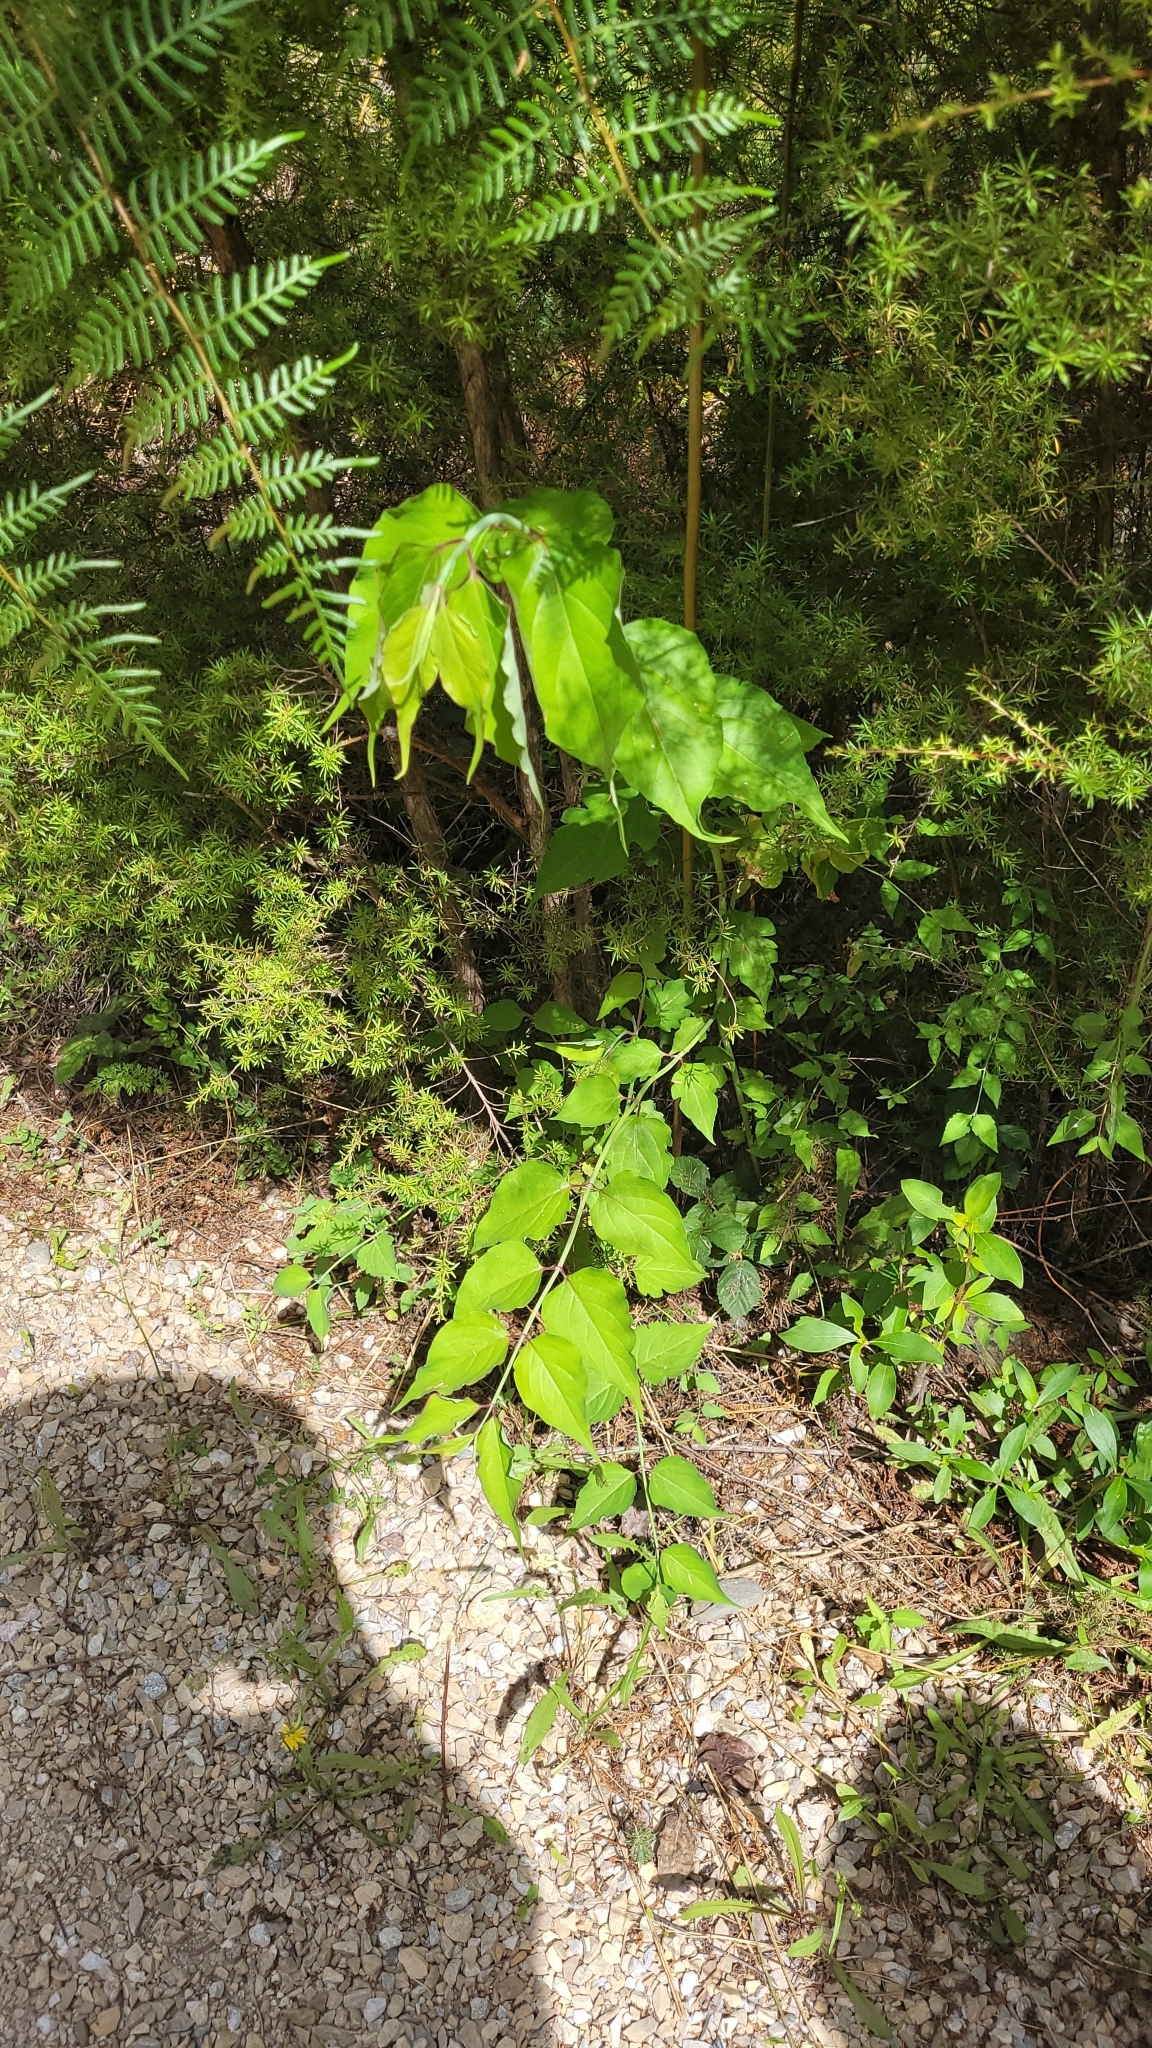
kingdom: Plantae
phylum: Tracheophyta
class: Magnoliopsida
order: Dipsacales
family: Caprifoliaceae
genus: Leycesteria
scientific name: Leycesteria formosa
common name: Himalayan honeysuckle
